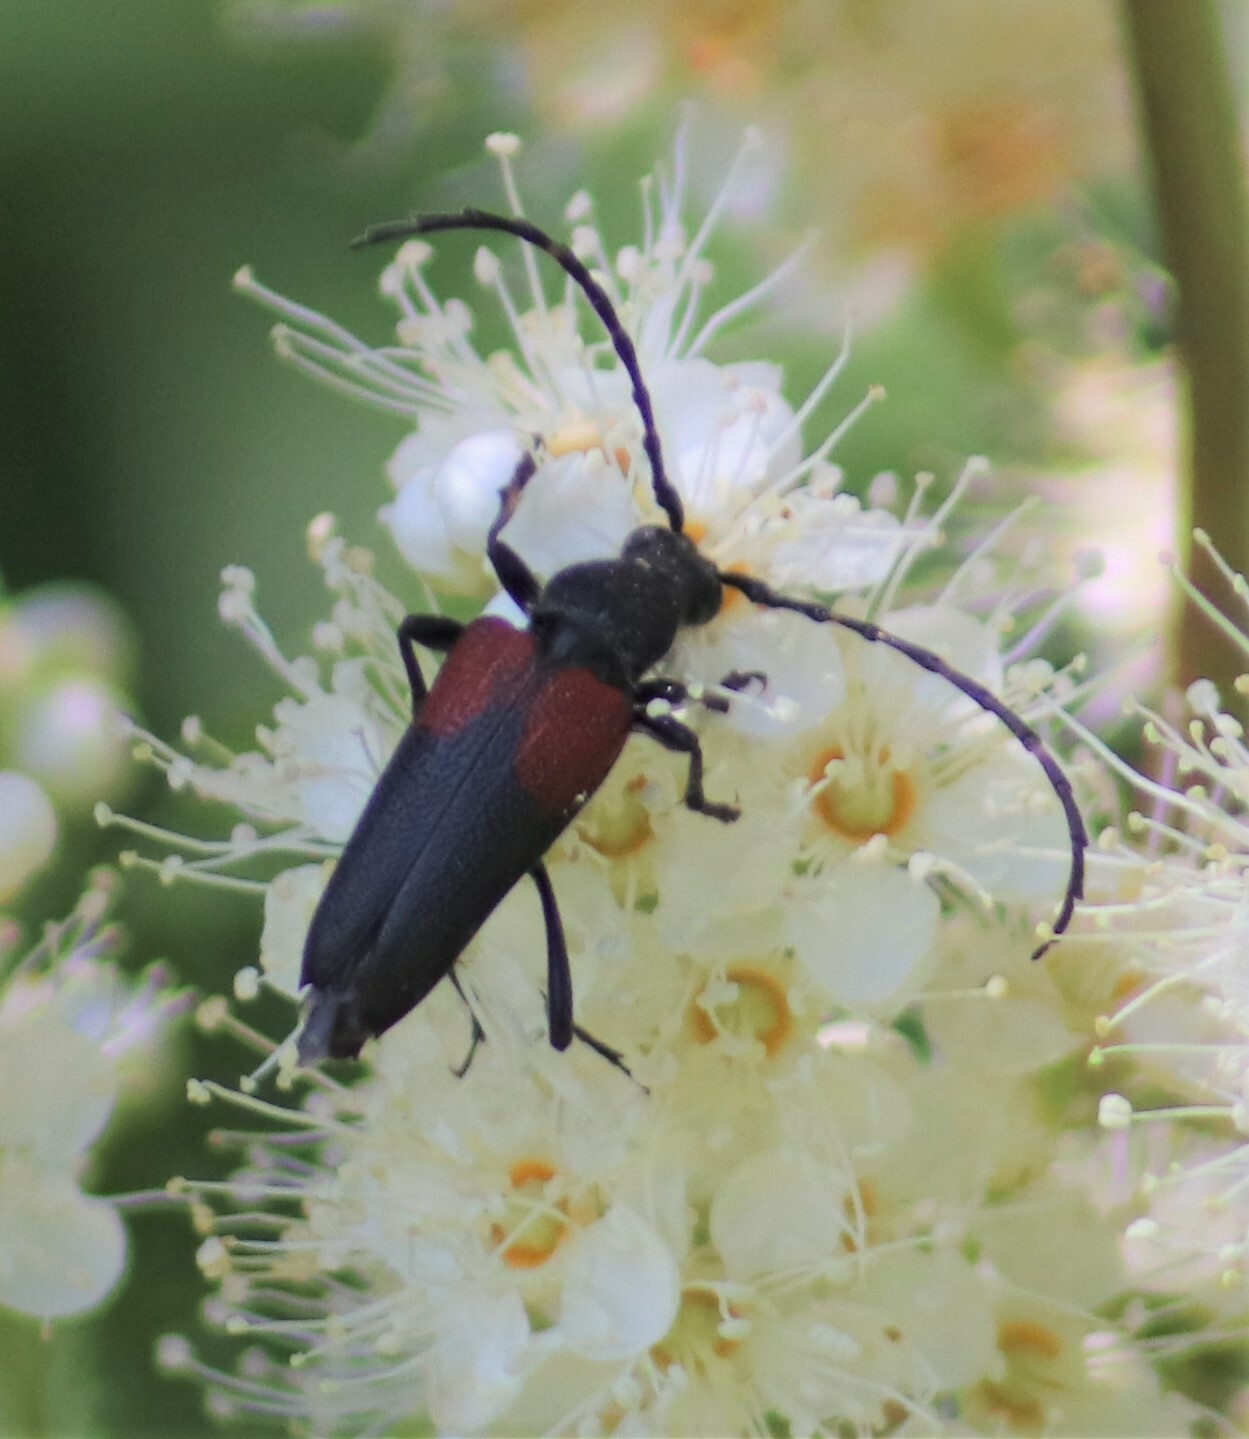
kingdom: Animalia
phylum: Arthropoda
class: Insecta
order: Coleoptera
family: Cerambycidae
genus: Stictoleptura
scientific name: Stictoleptura canadensis
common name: Red-shouldered pine borer
